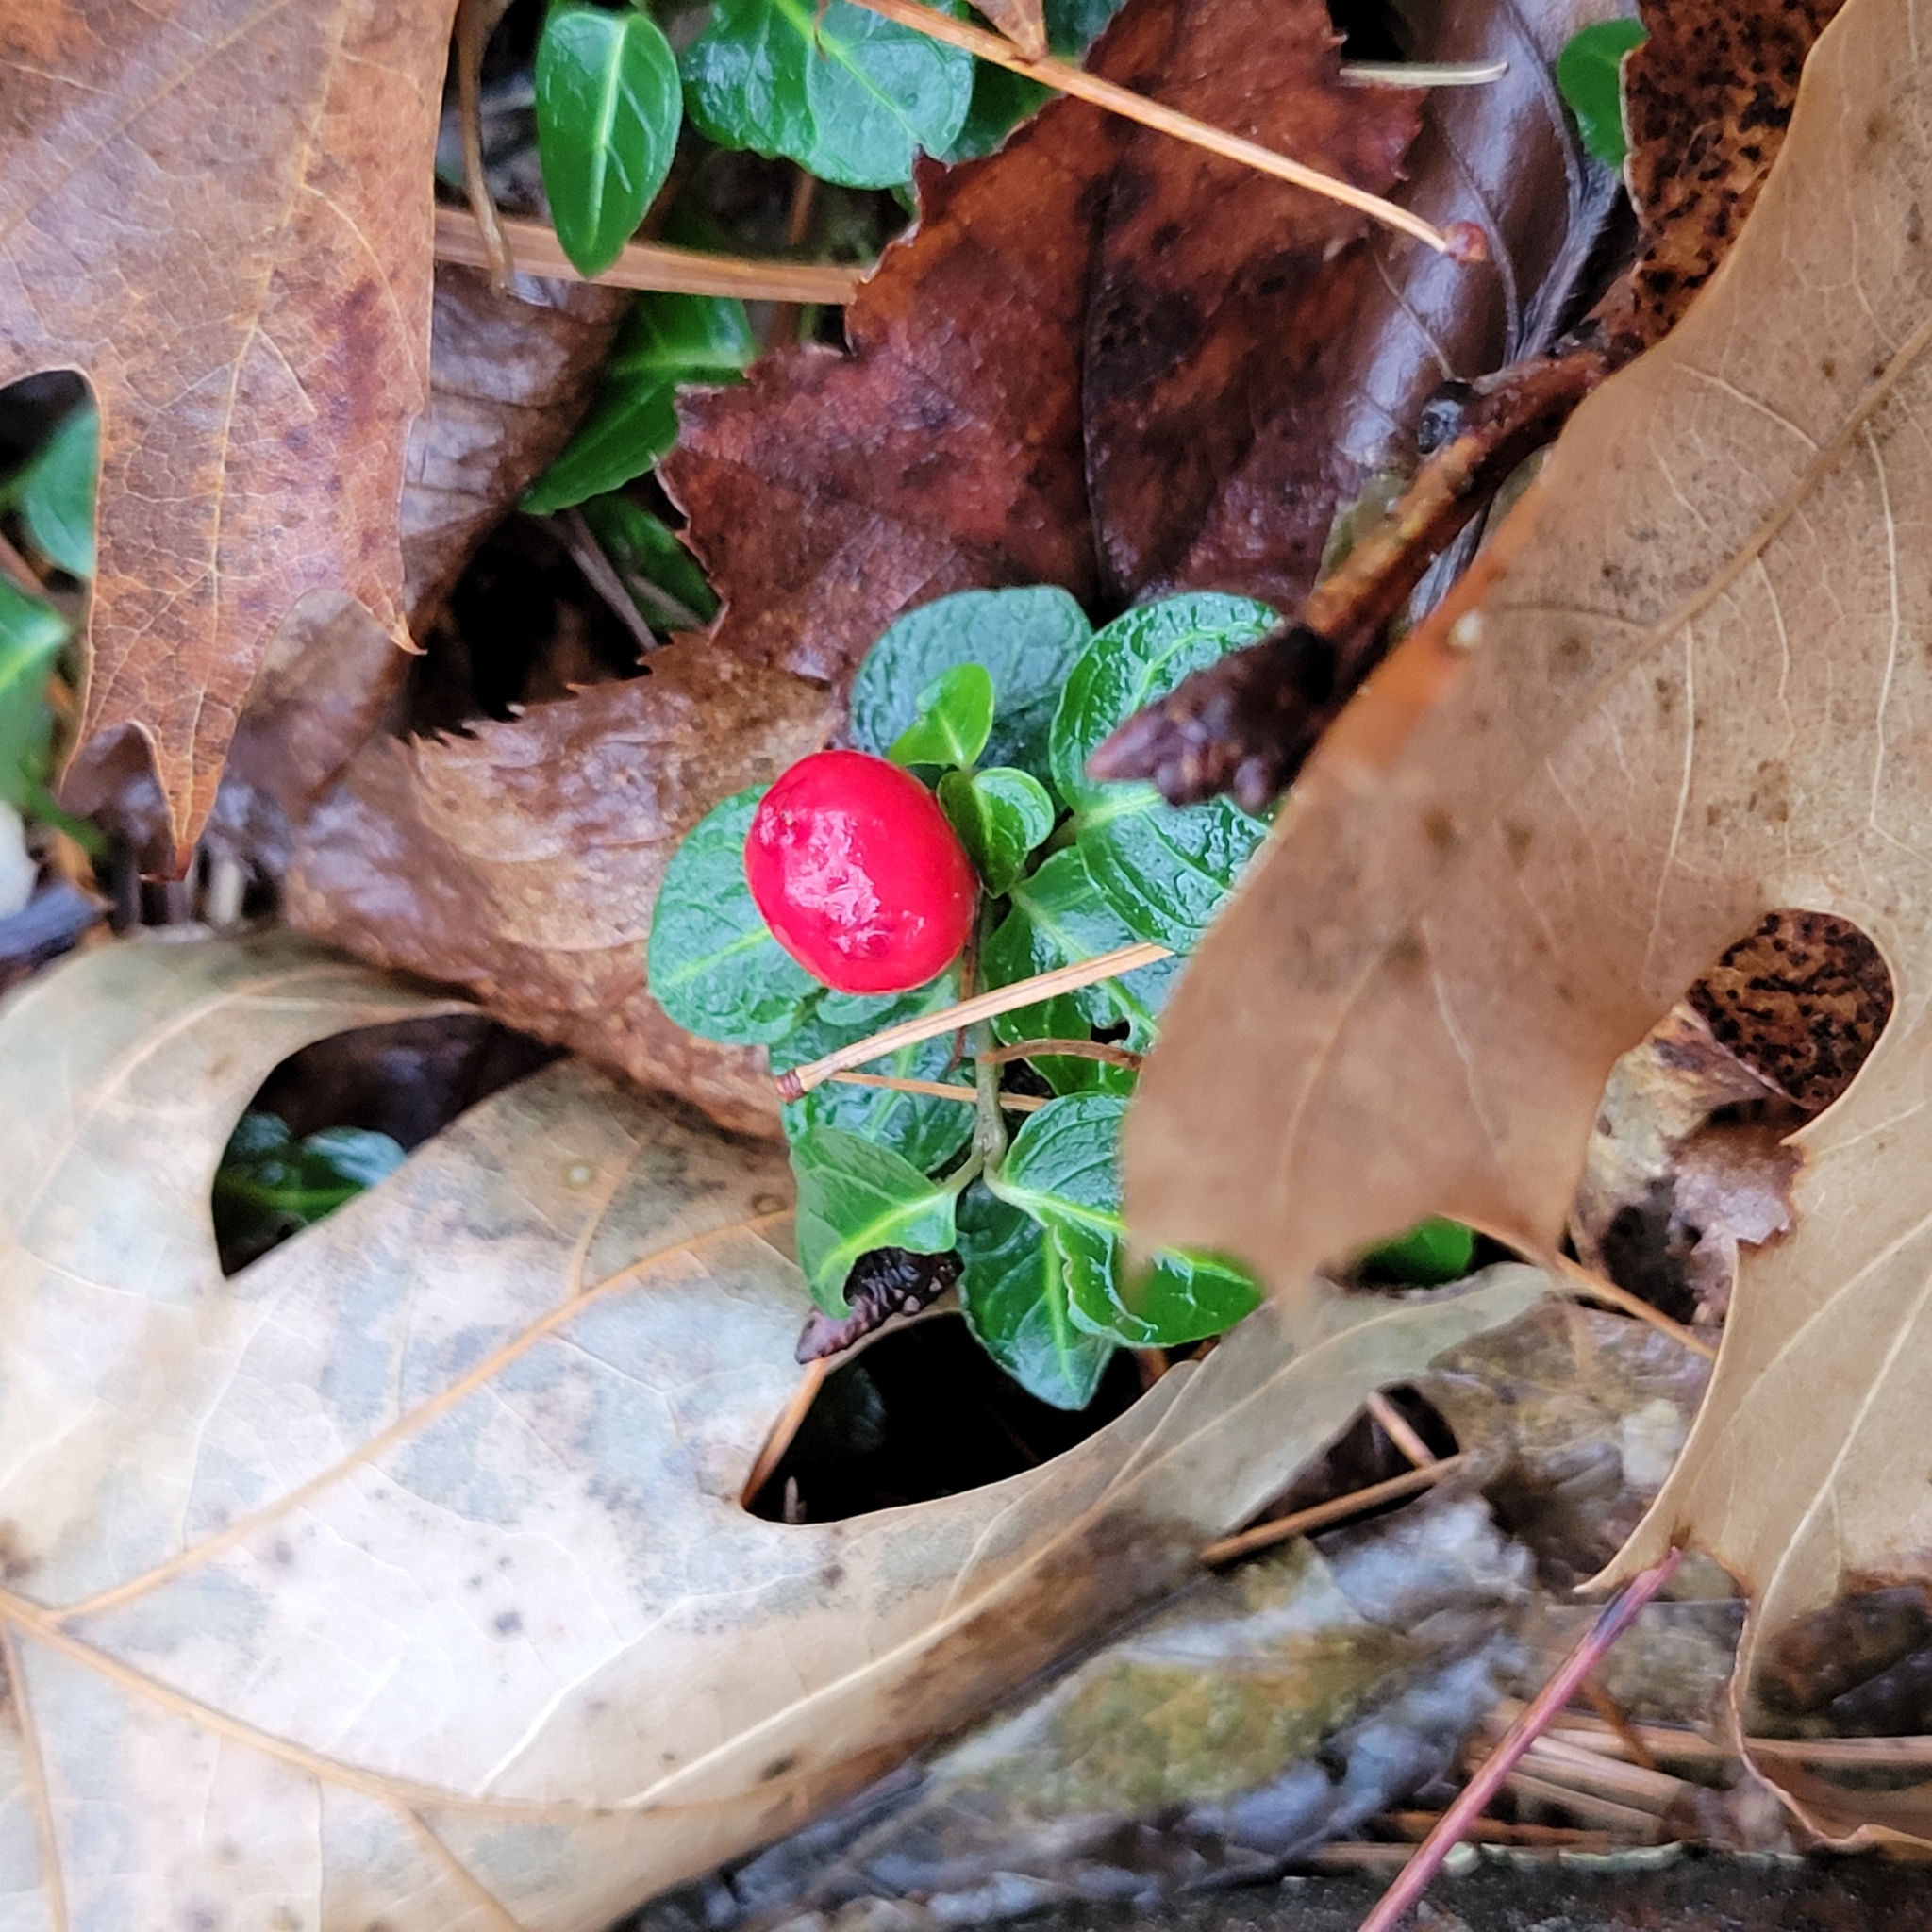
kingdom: Plantae
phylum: Tracheophyta
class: Magnoliopsida
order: Gentianales
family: Rubiaceae
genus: Mitchella
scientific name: Mitchella repens
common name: Partridge-berry
